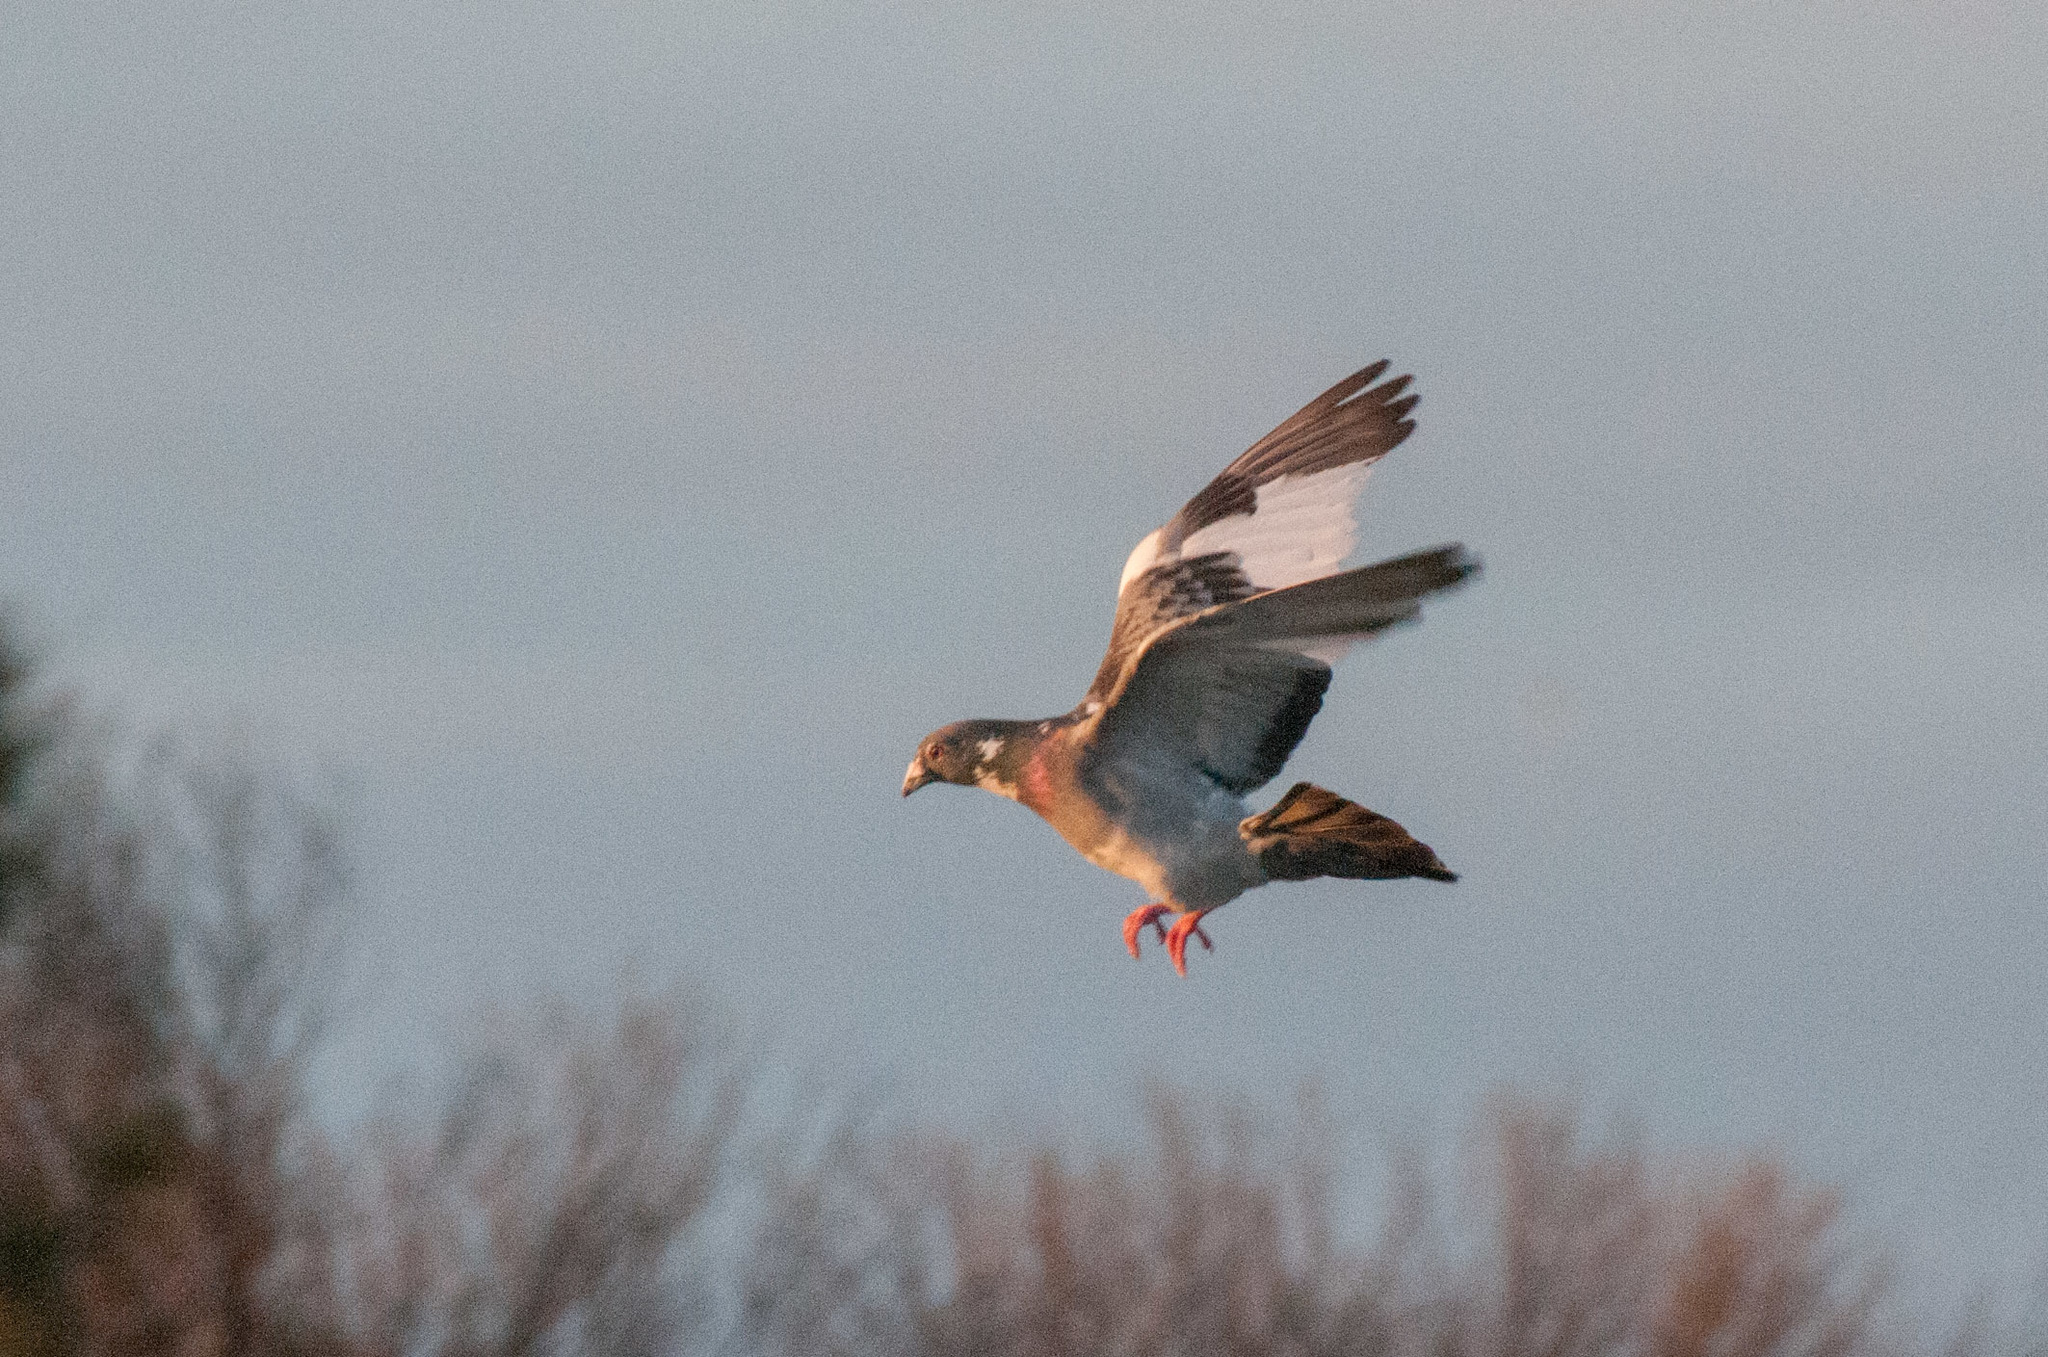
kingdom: Animalia
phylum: Chordata
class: Aves
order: Columbiformes
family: Columbidae
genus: Columba
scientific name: Columba livia
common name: Rock pigeon
